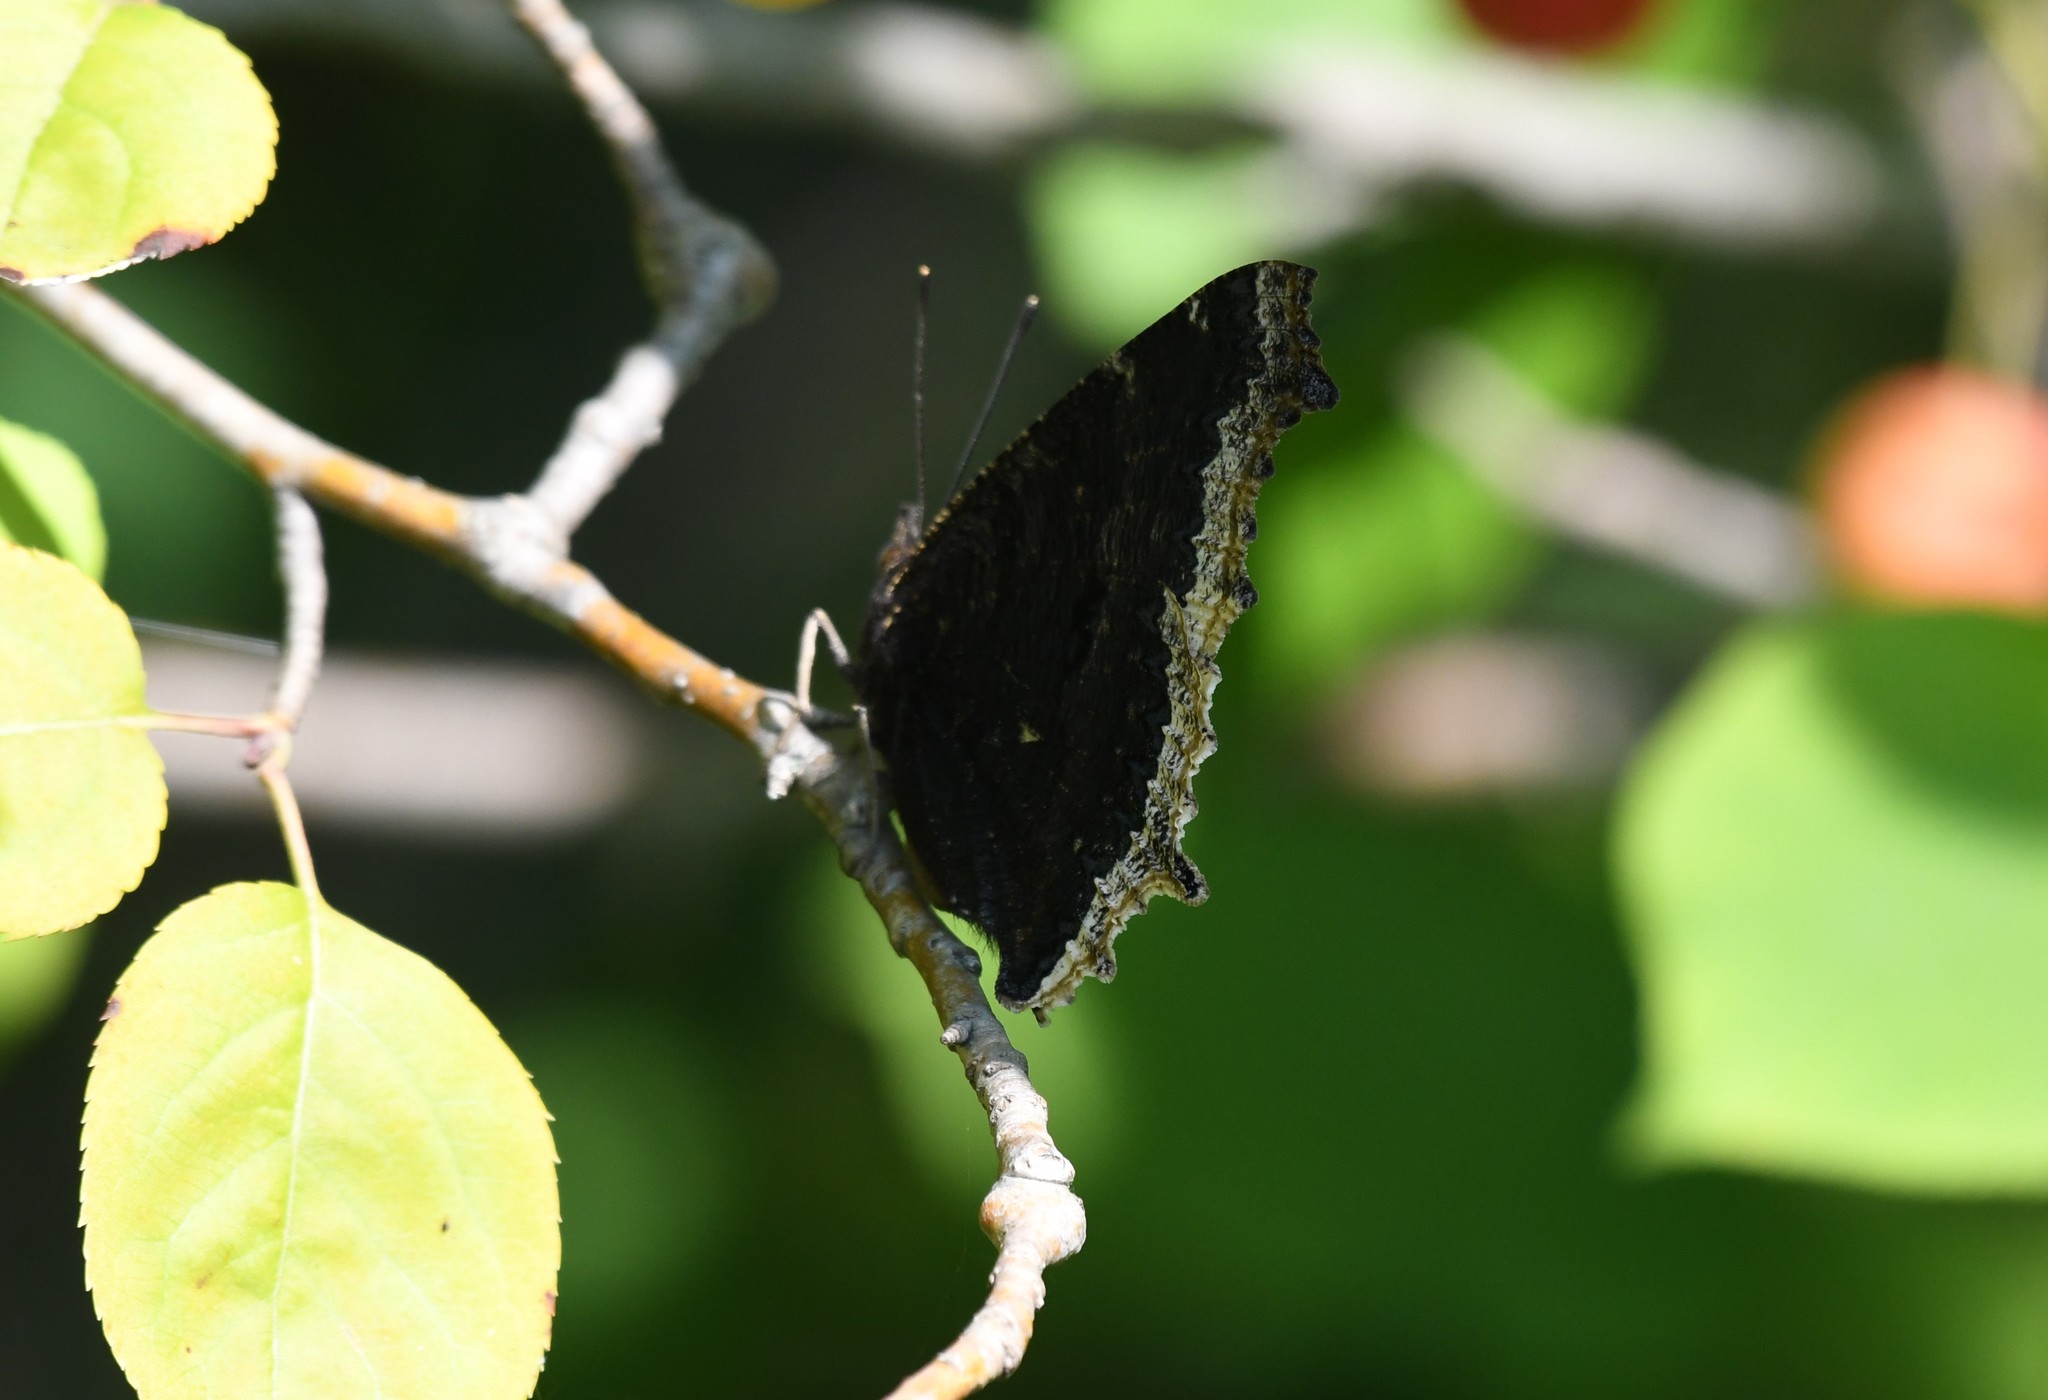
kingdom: Animalia
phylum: Arthropoda
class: Insecta
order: Lepidoptera
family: Nymphalidae
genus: Nymphalis
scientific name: Nymphalis antiopa
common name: Camberwell beauty
